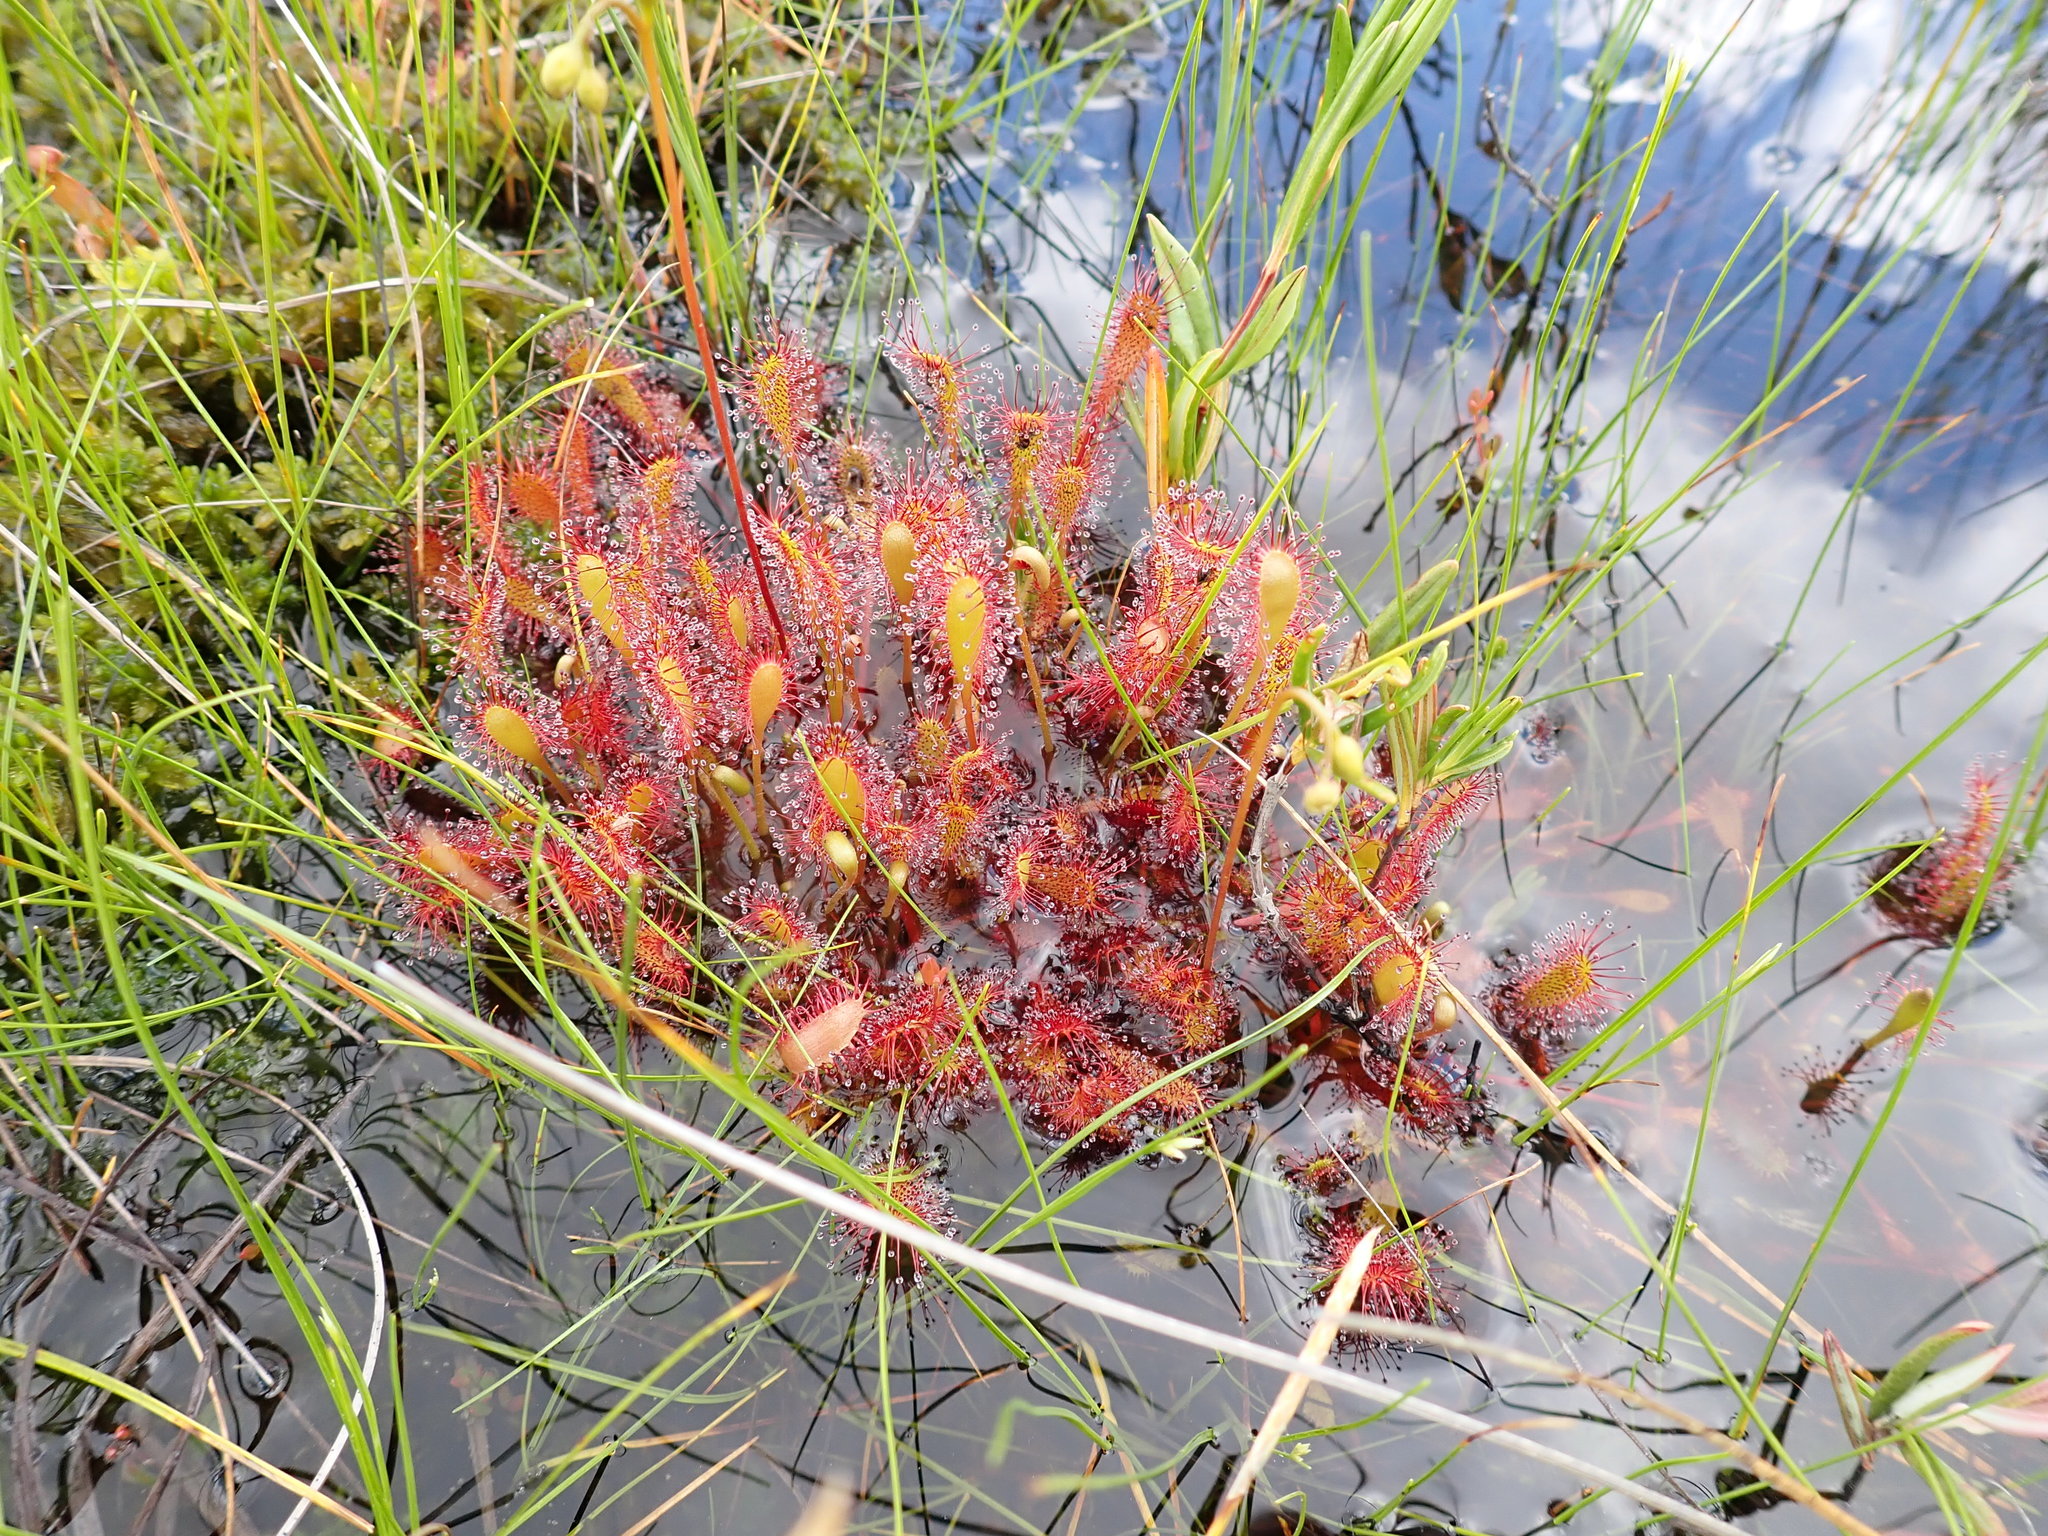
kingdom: Plantae
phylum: Tracheophyta
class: Magnoliopsida
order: Caryophyllales
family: Droseraceae
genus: Drosera
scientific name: Drosera anglica
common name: Great sundew
